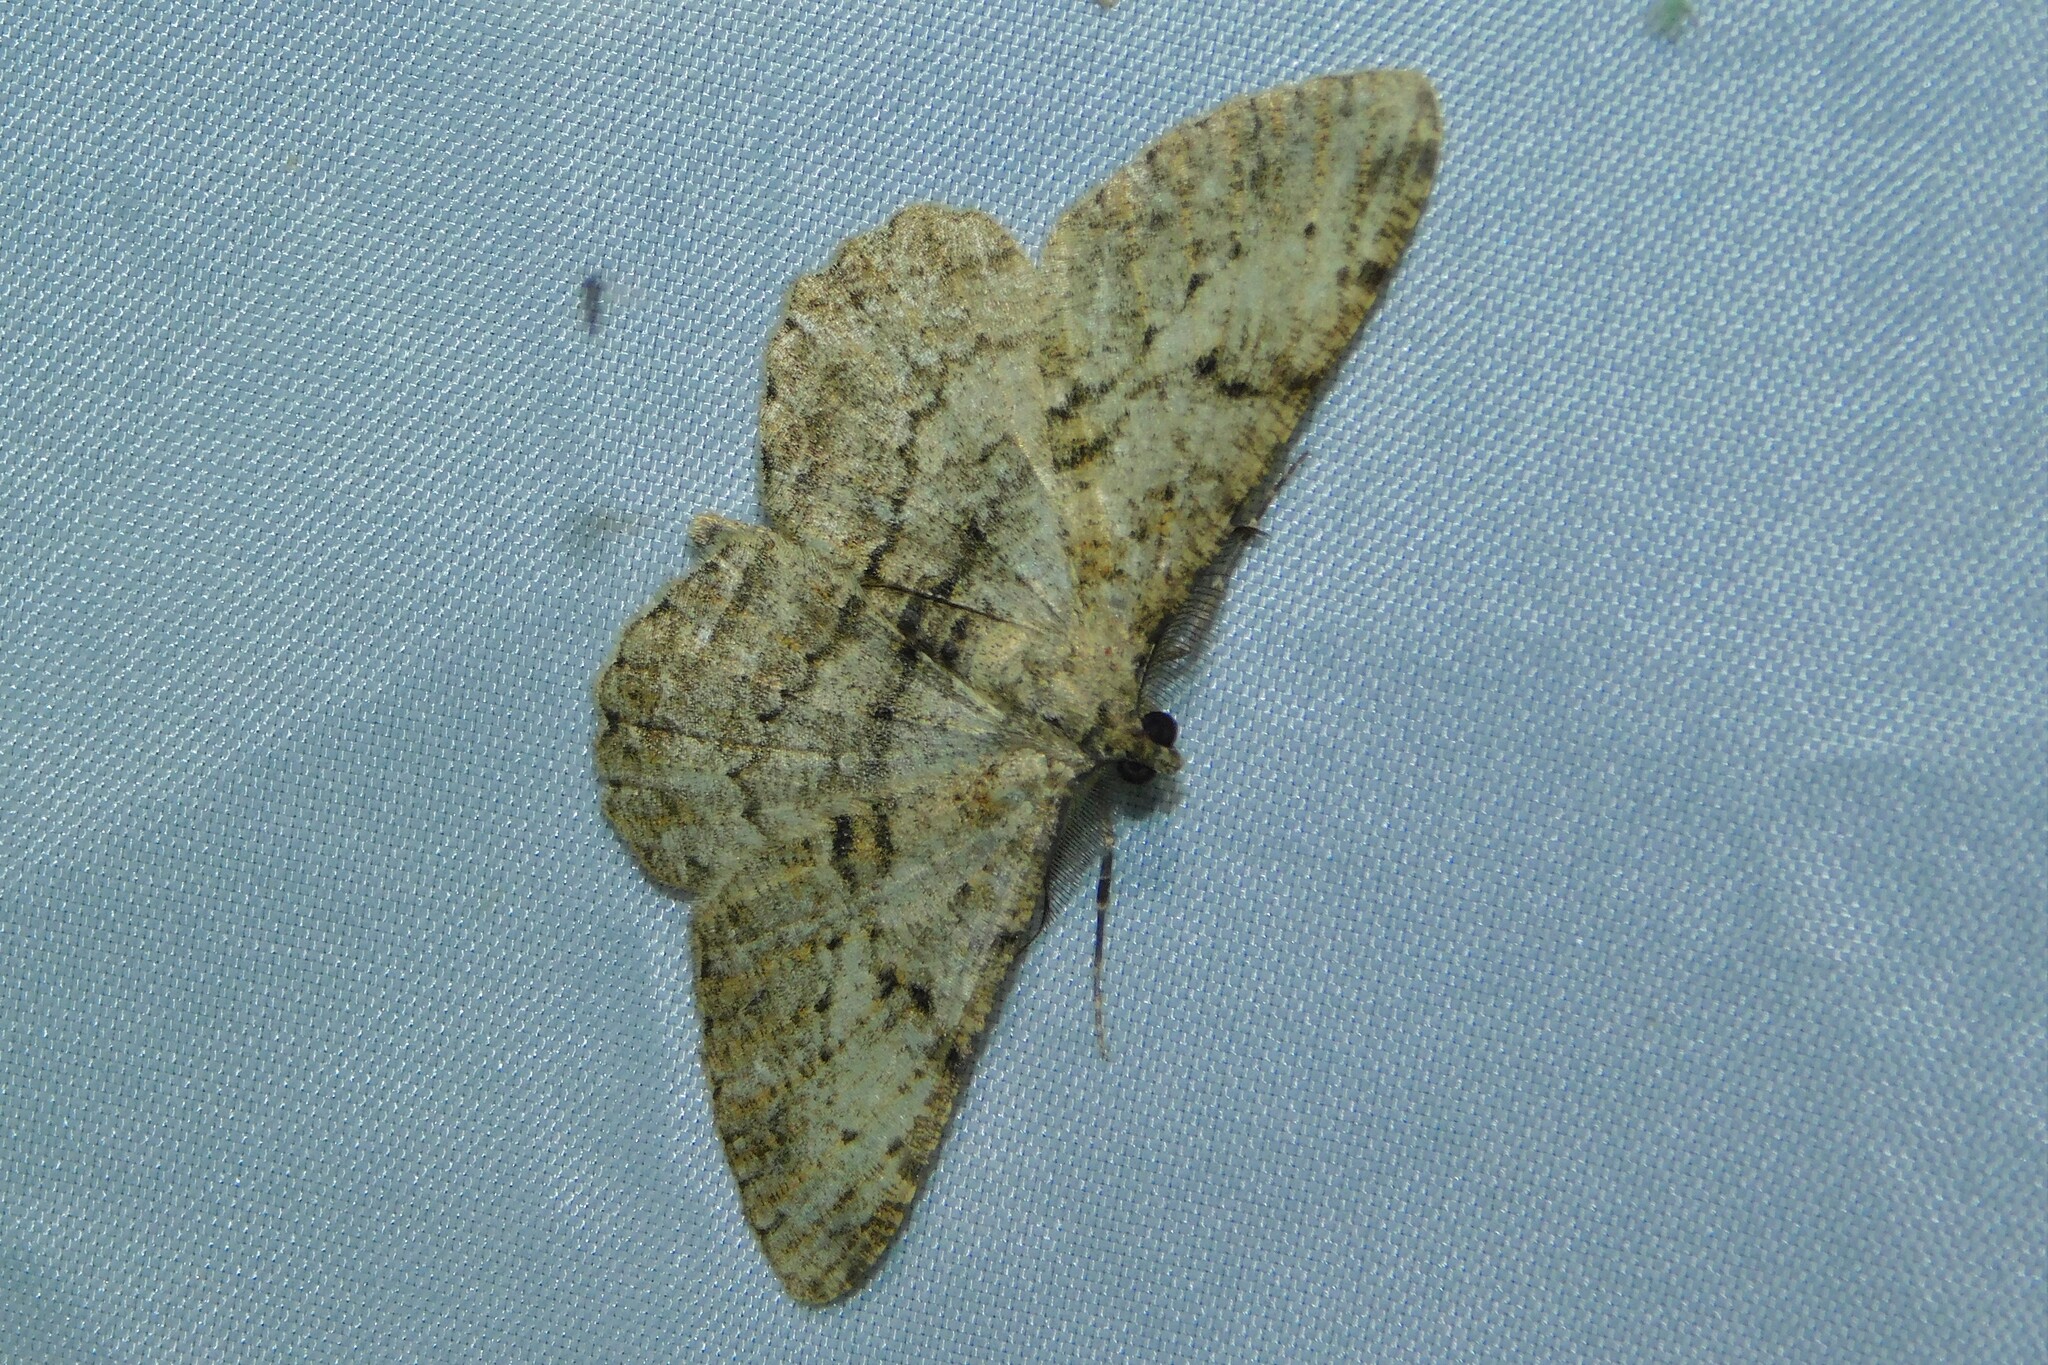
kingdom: Animalia
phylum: Arthropoda
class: Insecta
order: Lepidoptera
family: Geometridae
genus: Peribatodes
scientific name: Peribatodes rhomboidaria
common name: Willow beauty
